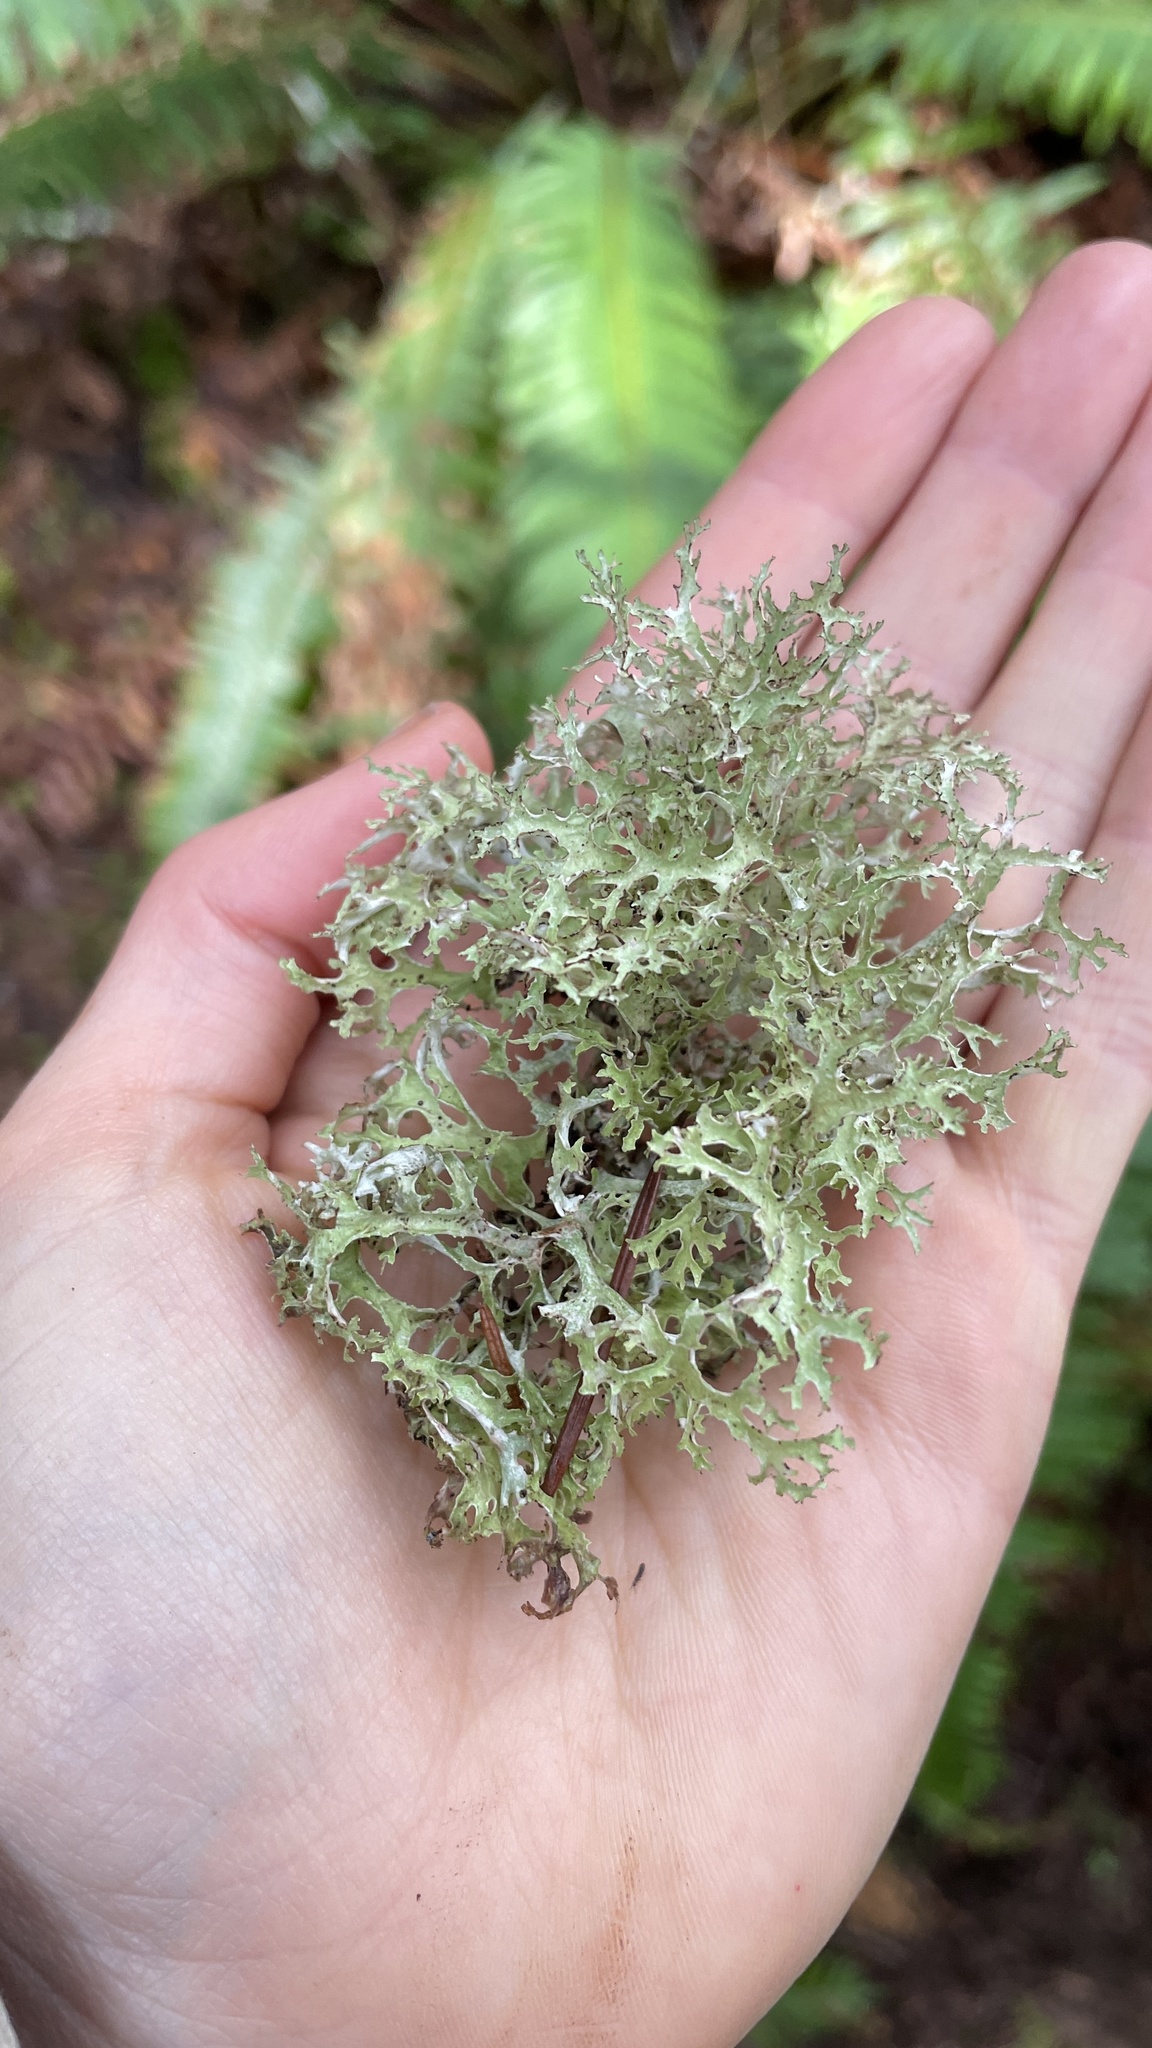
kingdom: Fungi
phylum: Ascomycota
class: Lecanoromycetes
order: Lecanorales
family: Parmeliaceae
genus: Platismatia
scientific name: Platismatia stenophylla
